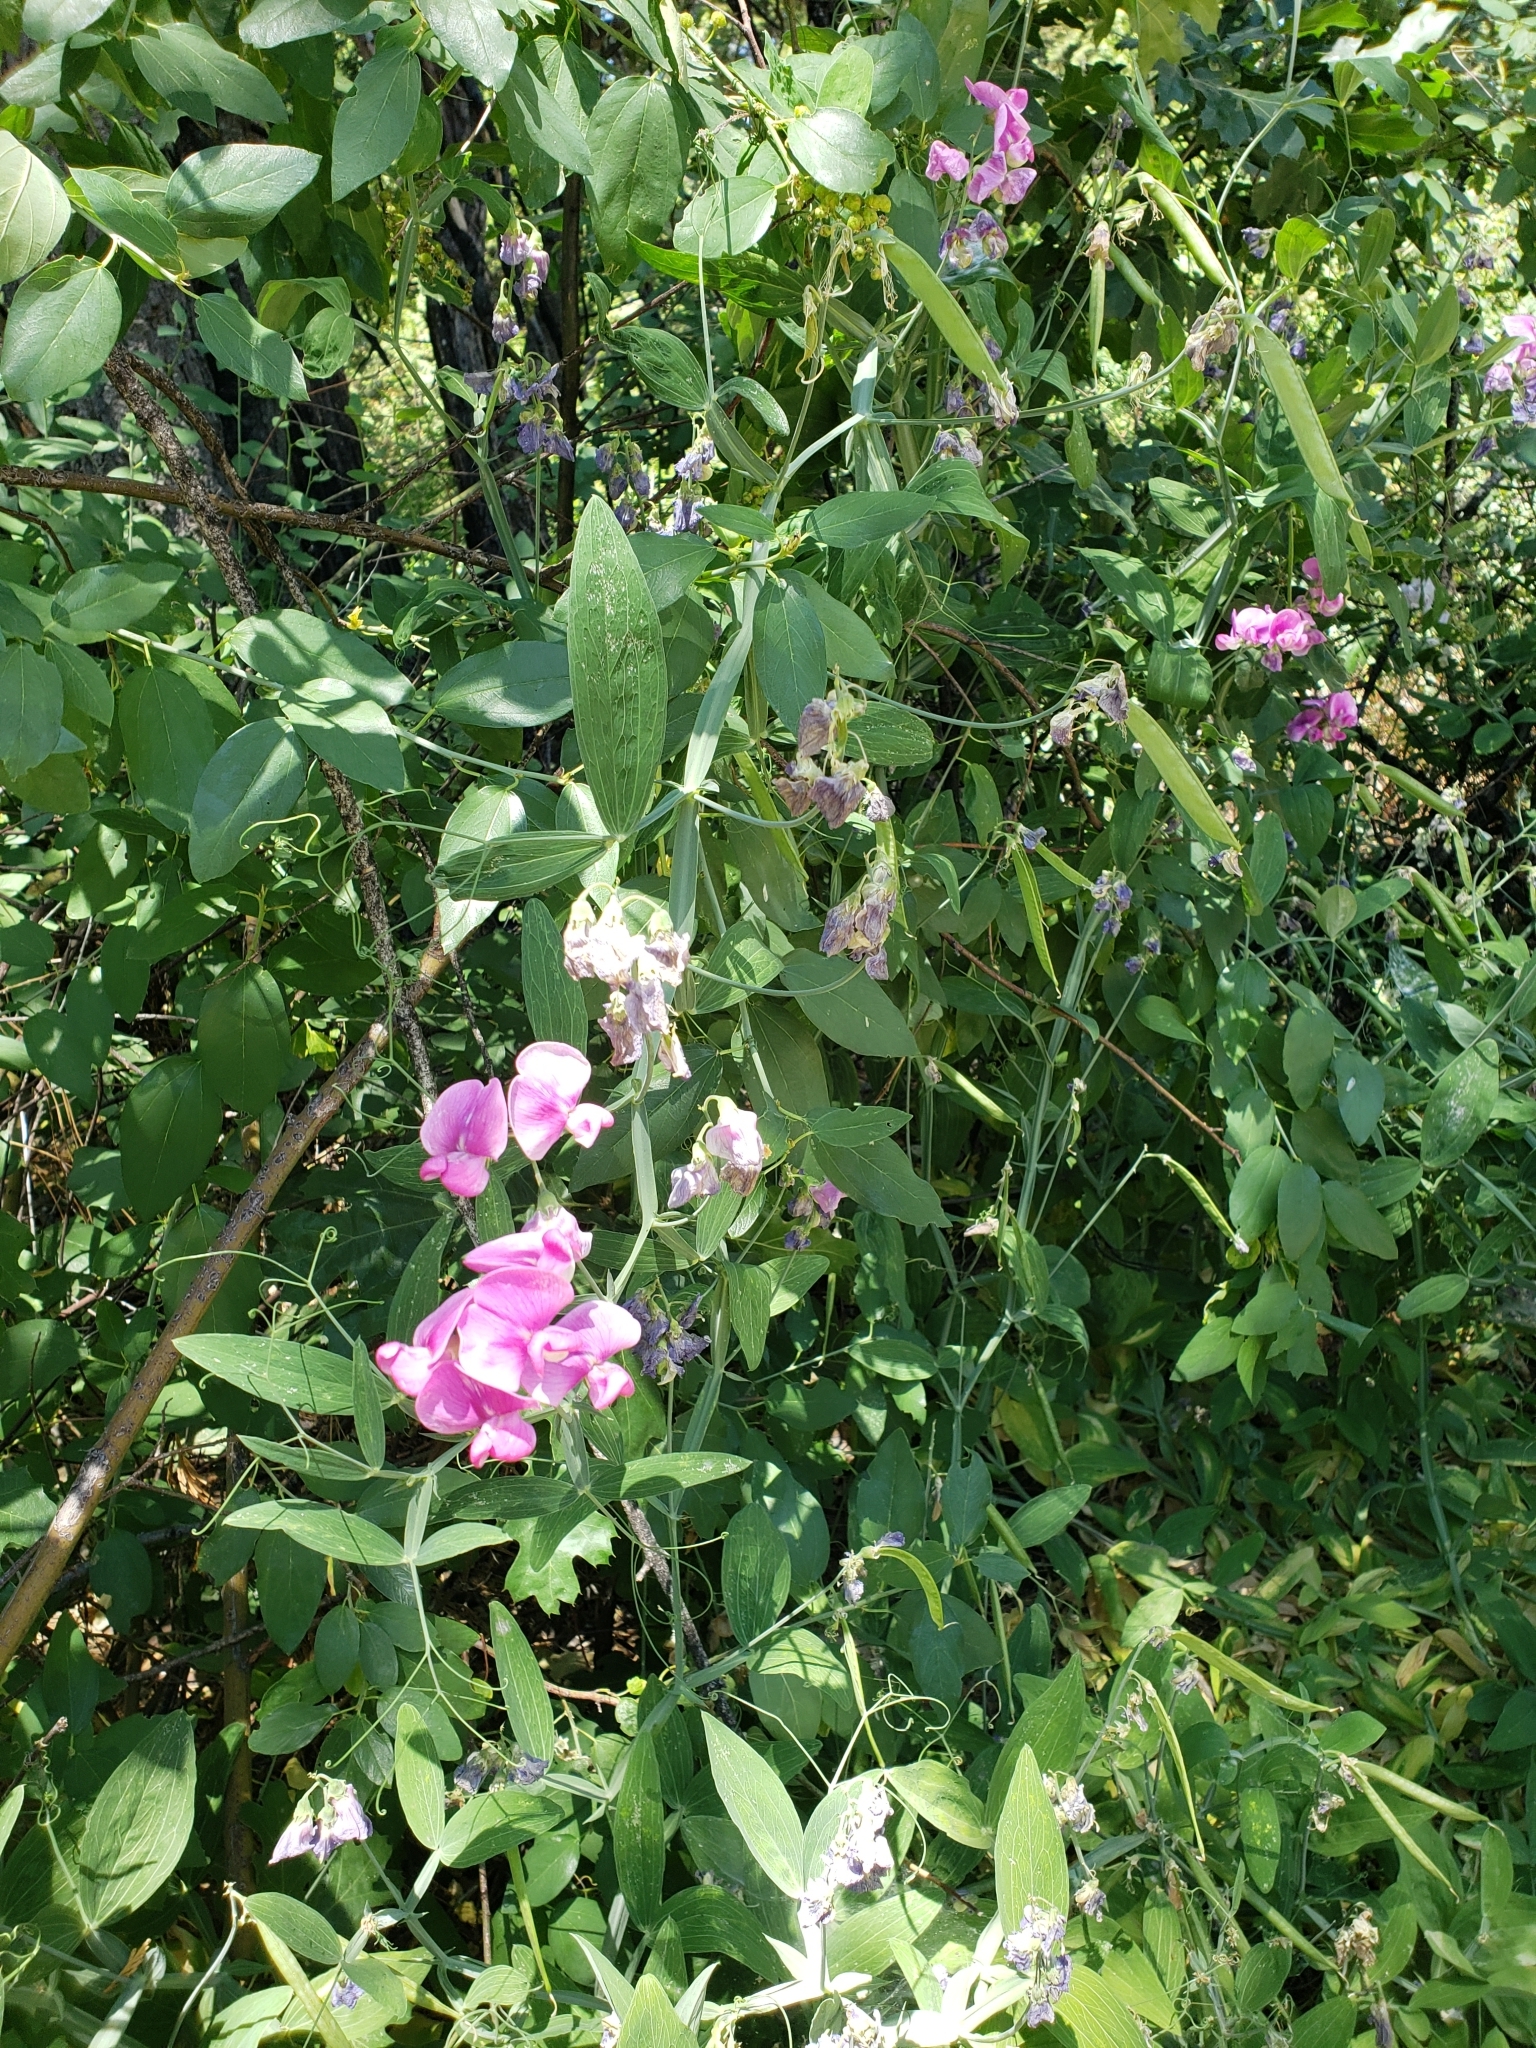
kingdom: Plantae
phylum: Tracheophyta
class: Magnoliopsida
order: Fabales
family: Fabaceae
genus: Lathyrus
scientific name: Lathyrus latifolius
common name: Perennial pea
